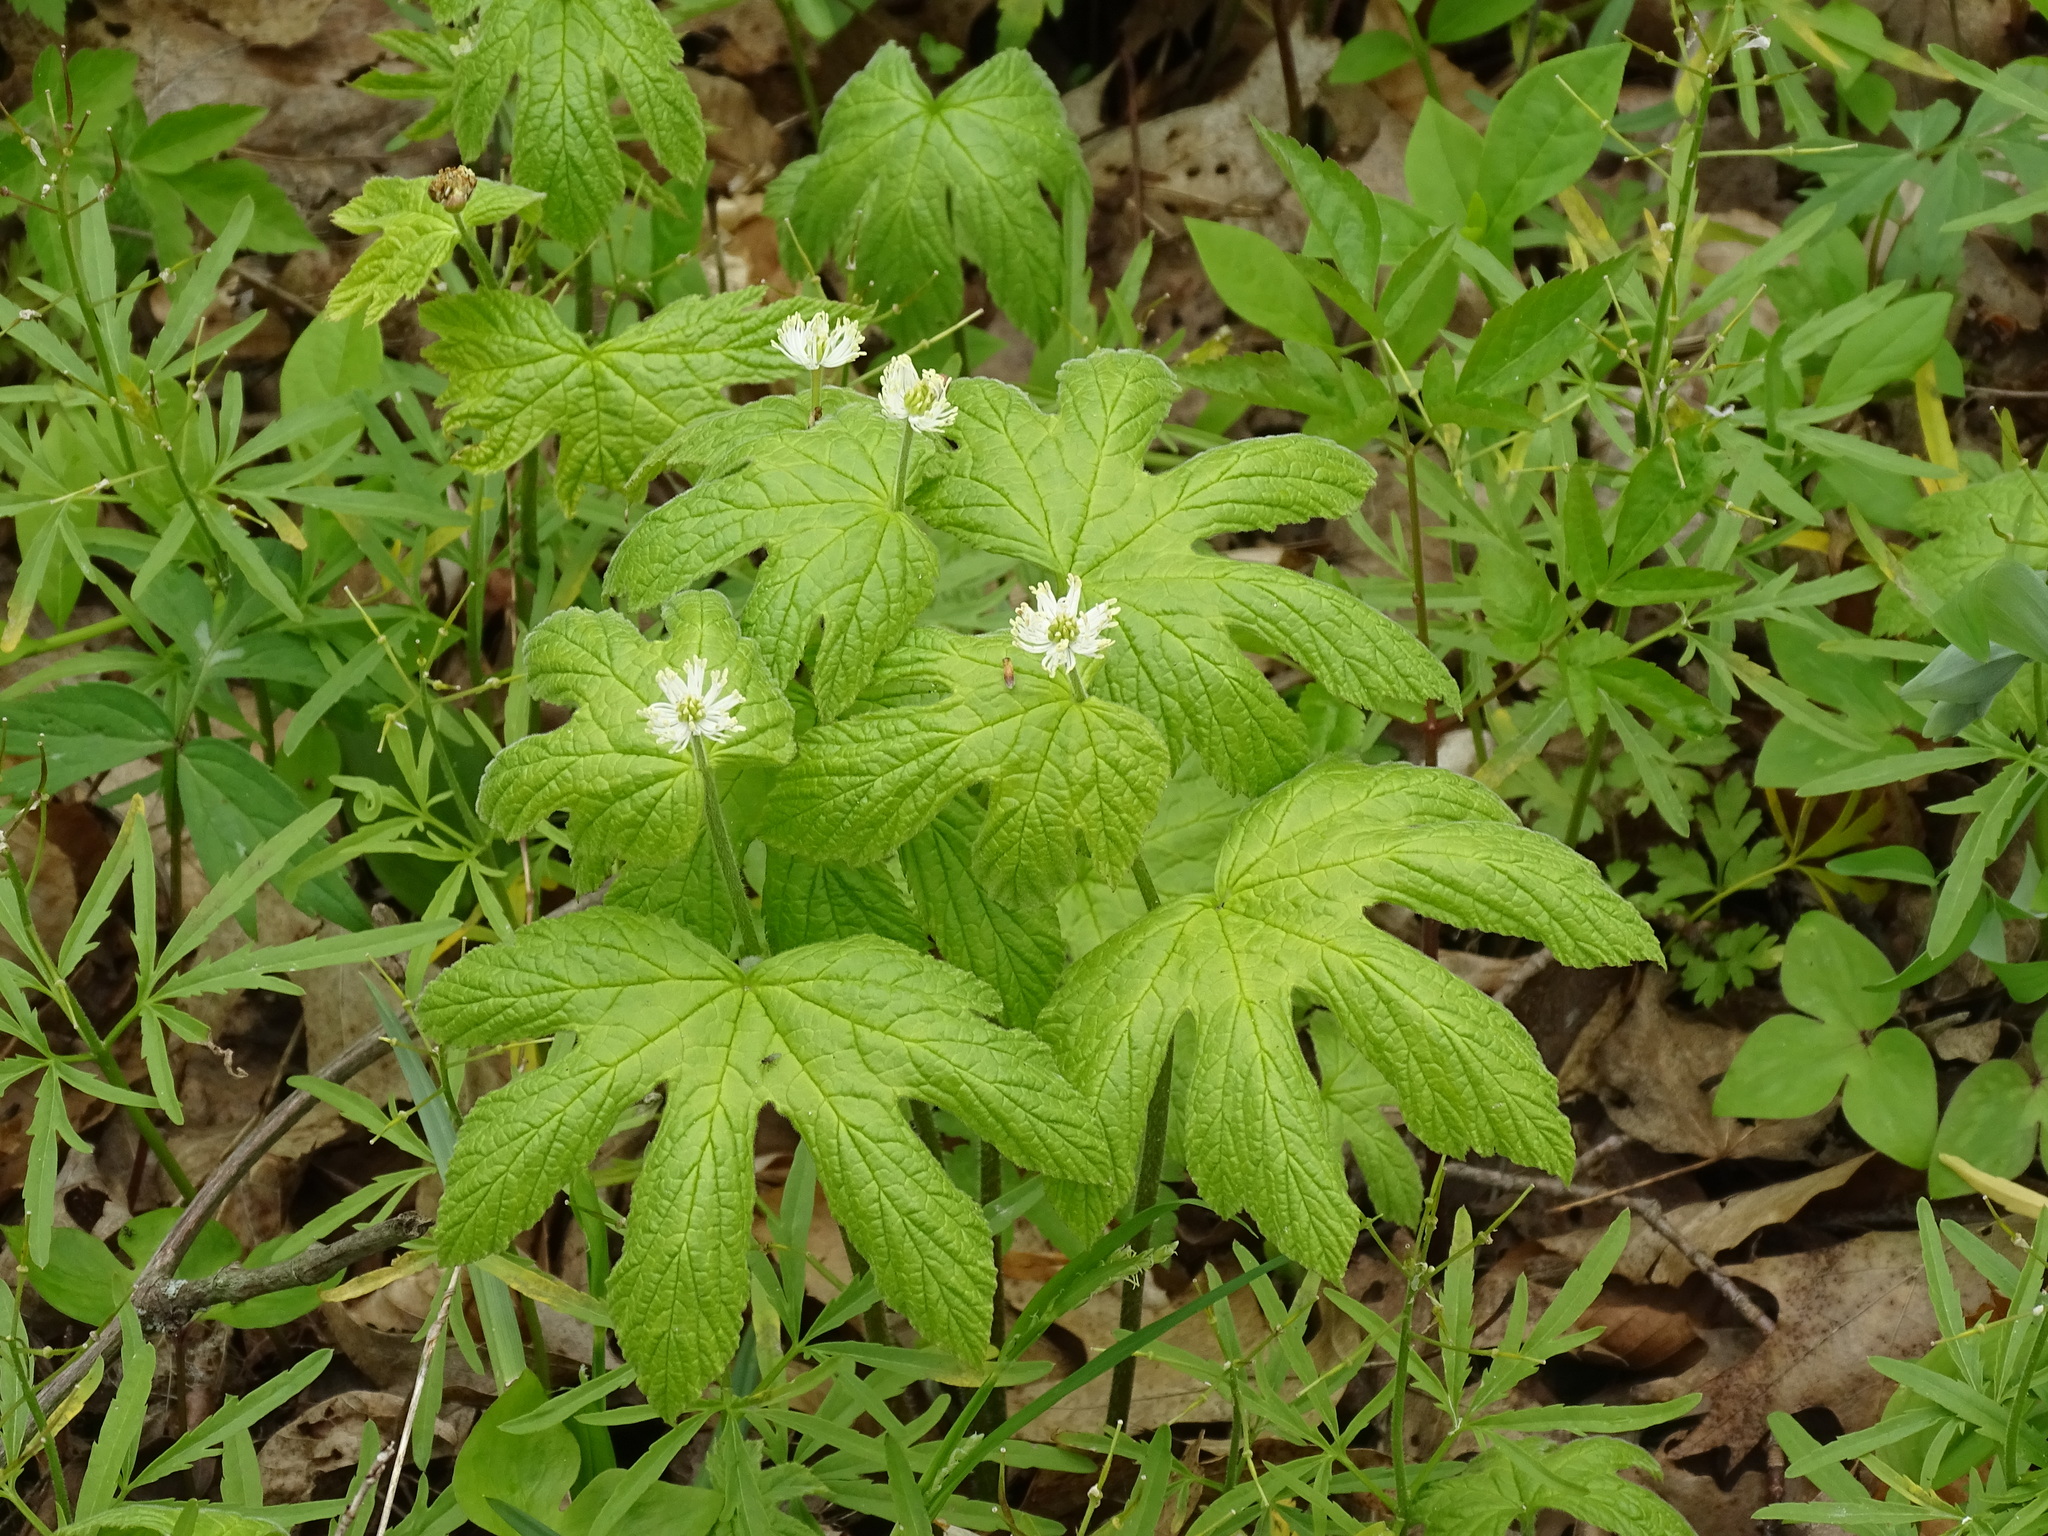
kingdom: Plantae
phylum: Tracheophyta
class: Magnoliopsida
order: Ranunculales
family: Ranunculaceae
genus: Hydrastis
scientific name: Hydrastis canadensis
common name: Goldenseal
